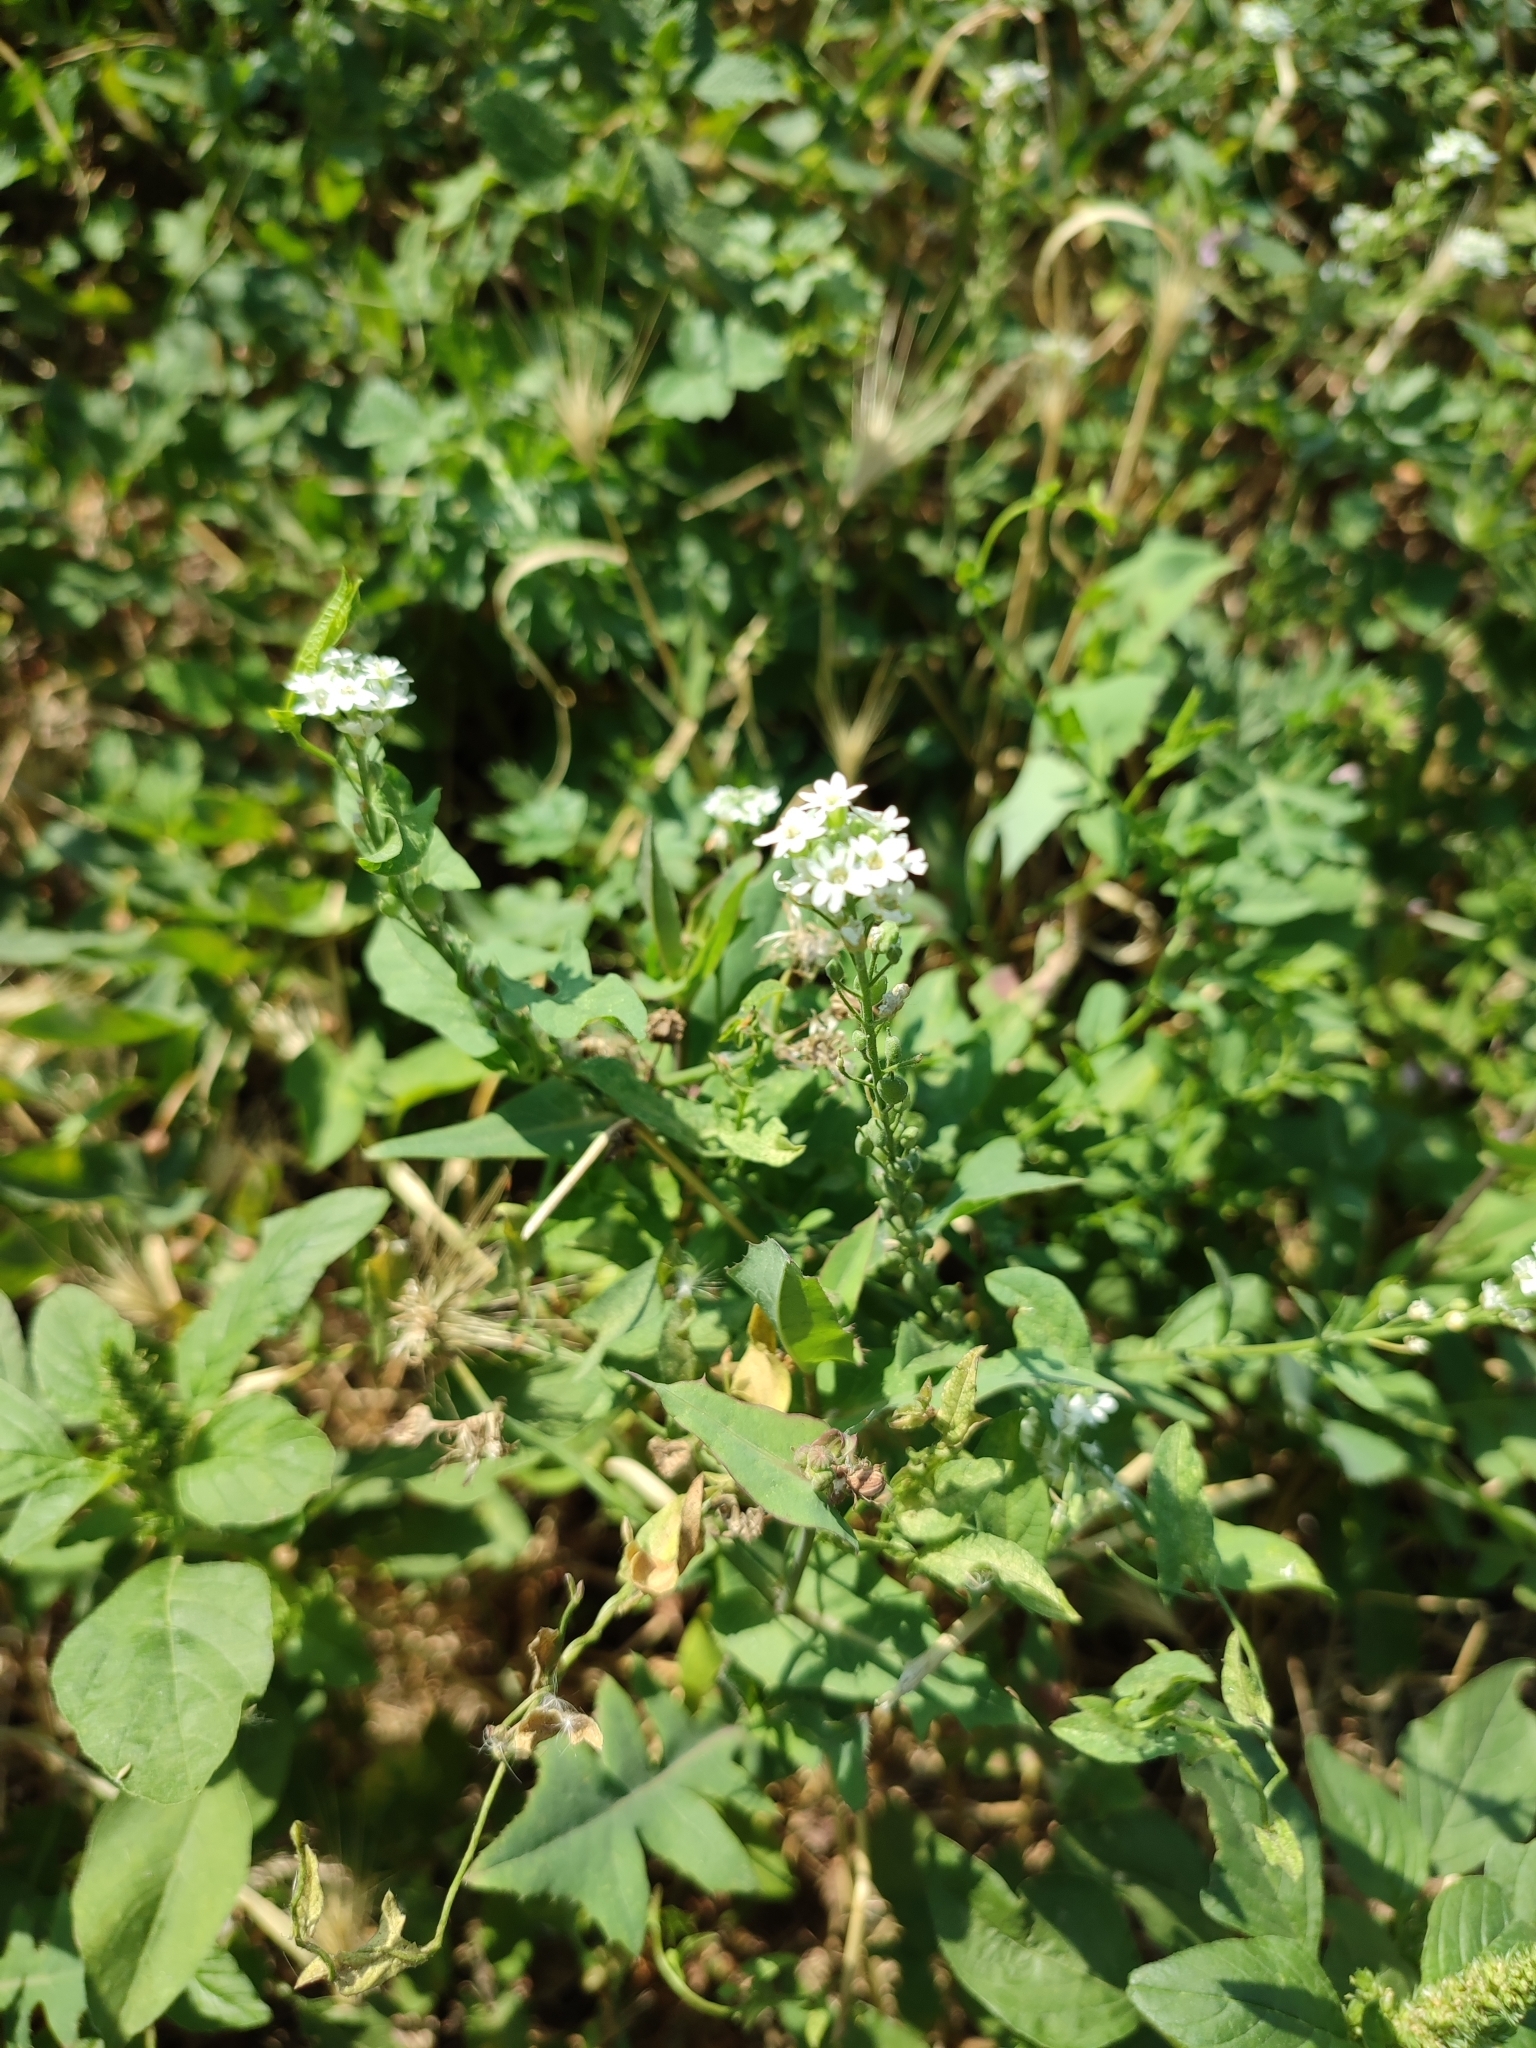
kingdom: Plantae
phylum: Tracheophyta
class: Magnoliopsida
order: Brassicales
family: Brassicaceae
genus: Berteroa
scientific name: Berteroa incana
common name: Hoary alison
